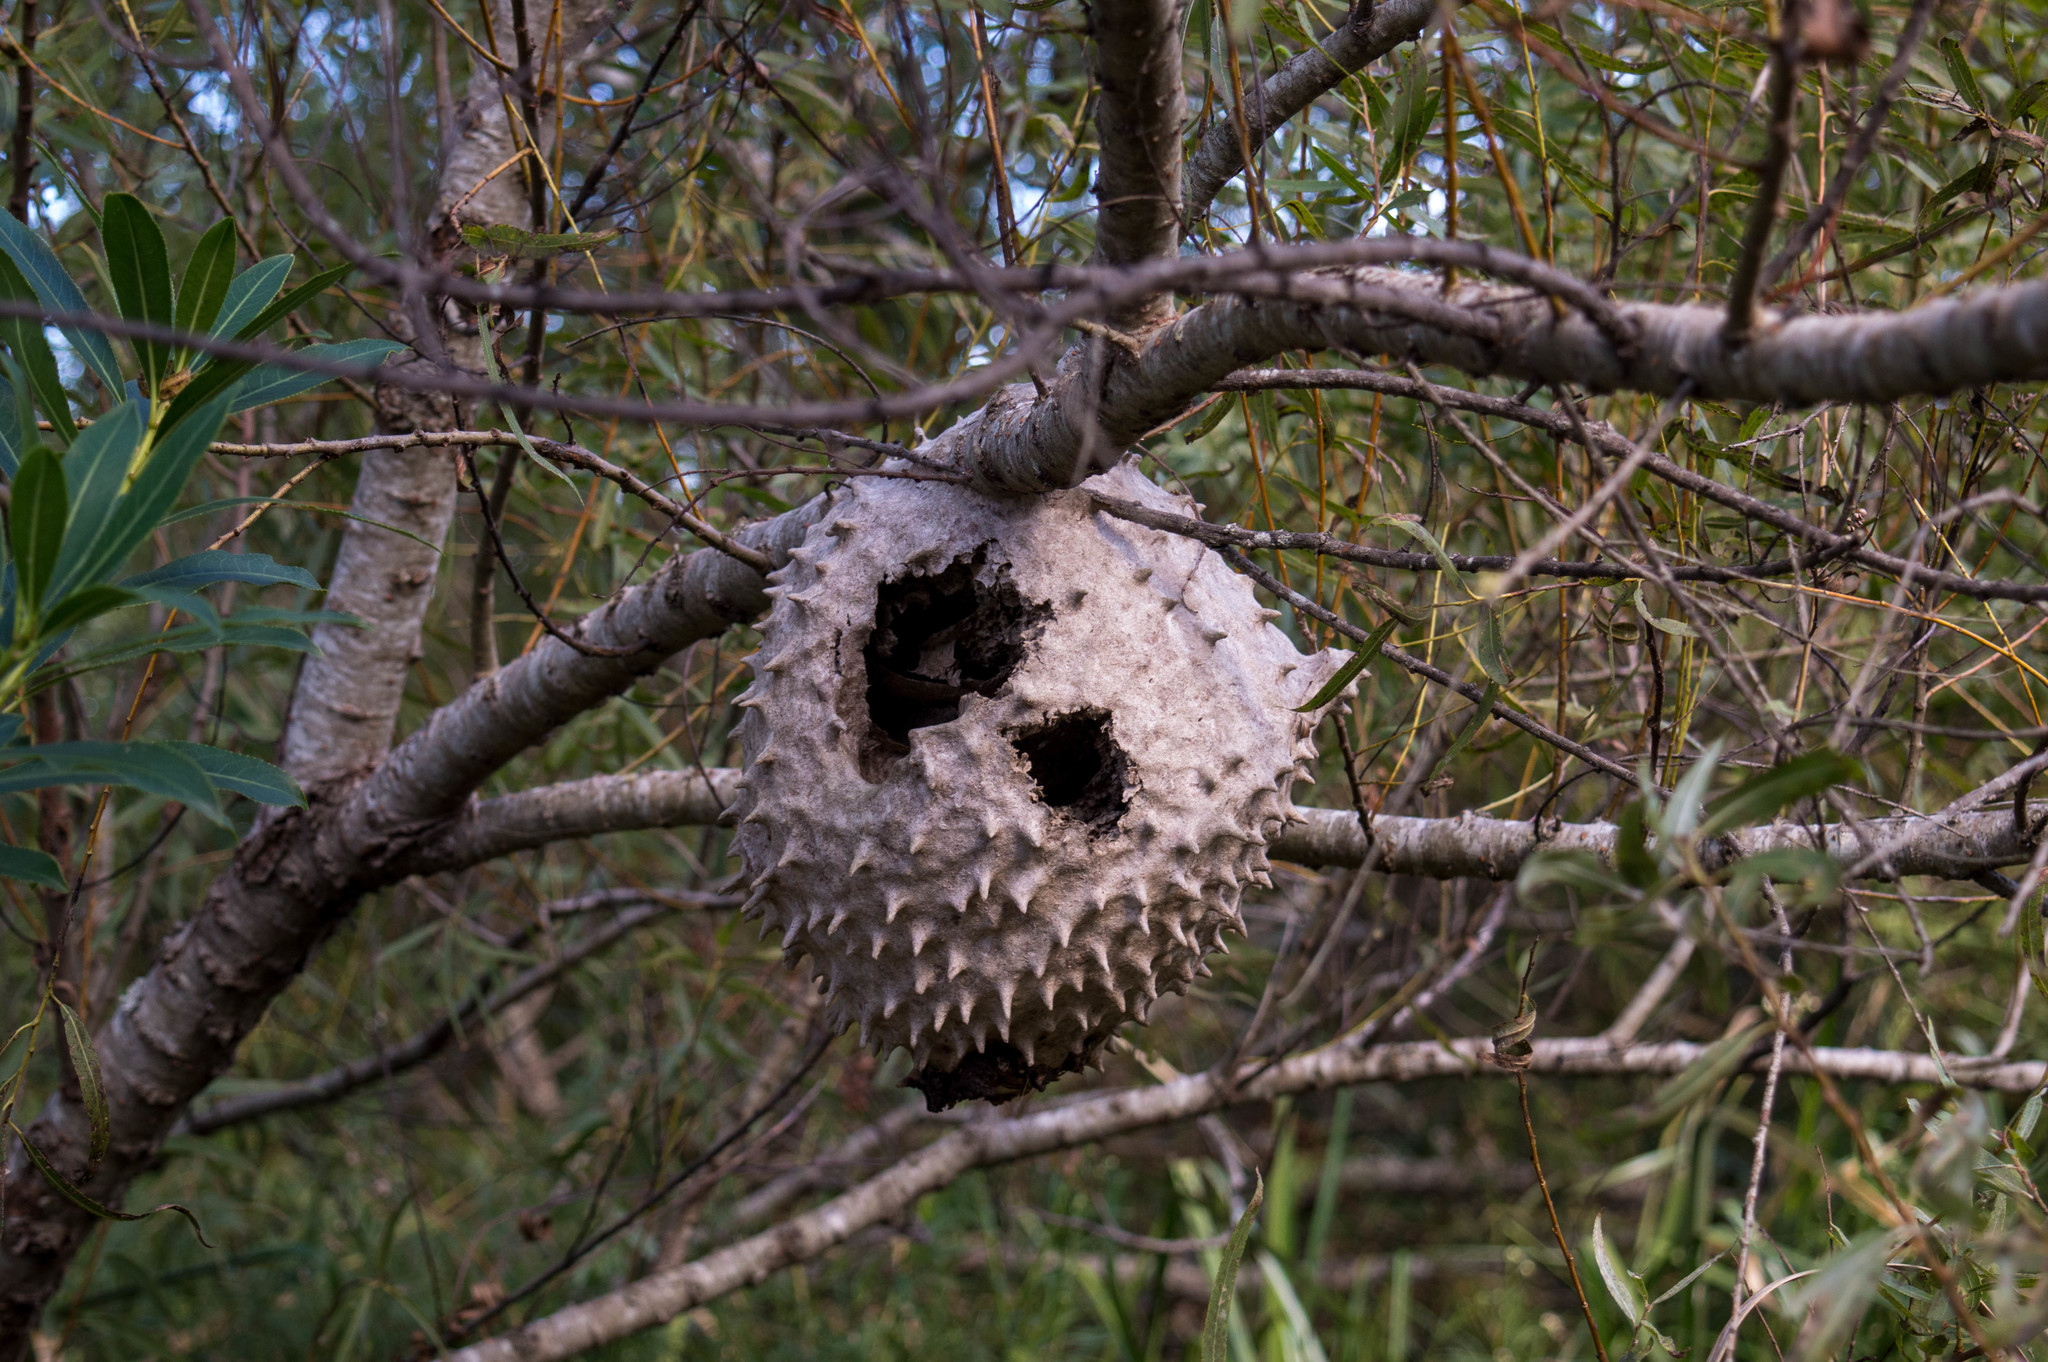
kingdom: Animalia
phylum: Arthropoda
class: Insecta
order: Hymenoptera
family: Eumenidae
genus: Polybia
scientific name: Polybia scutellaris
